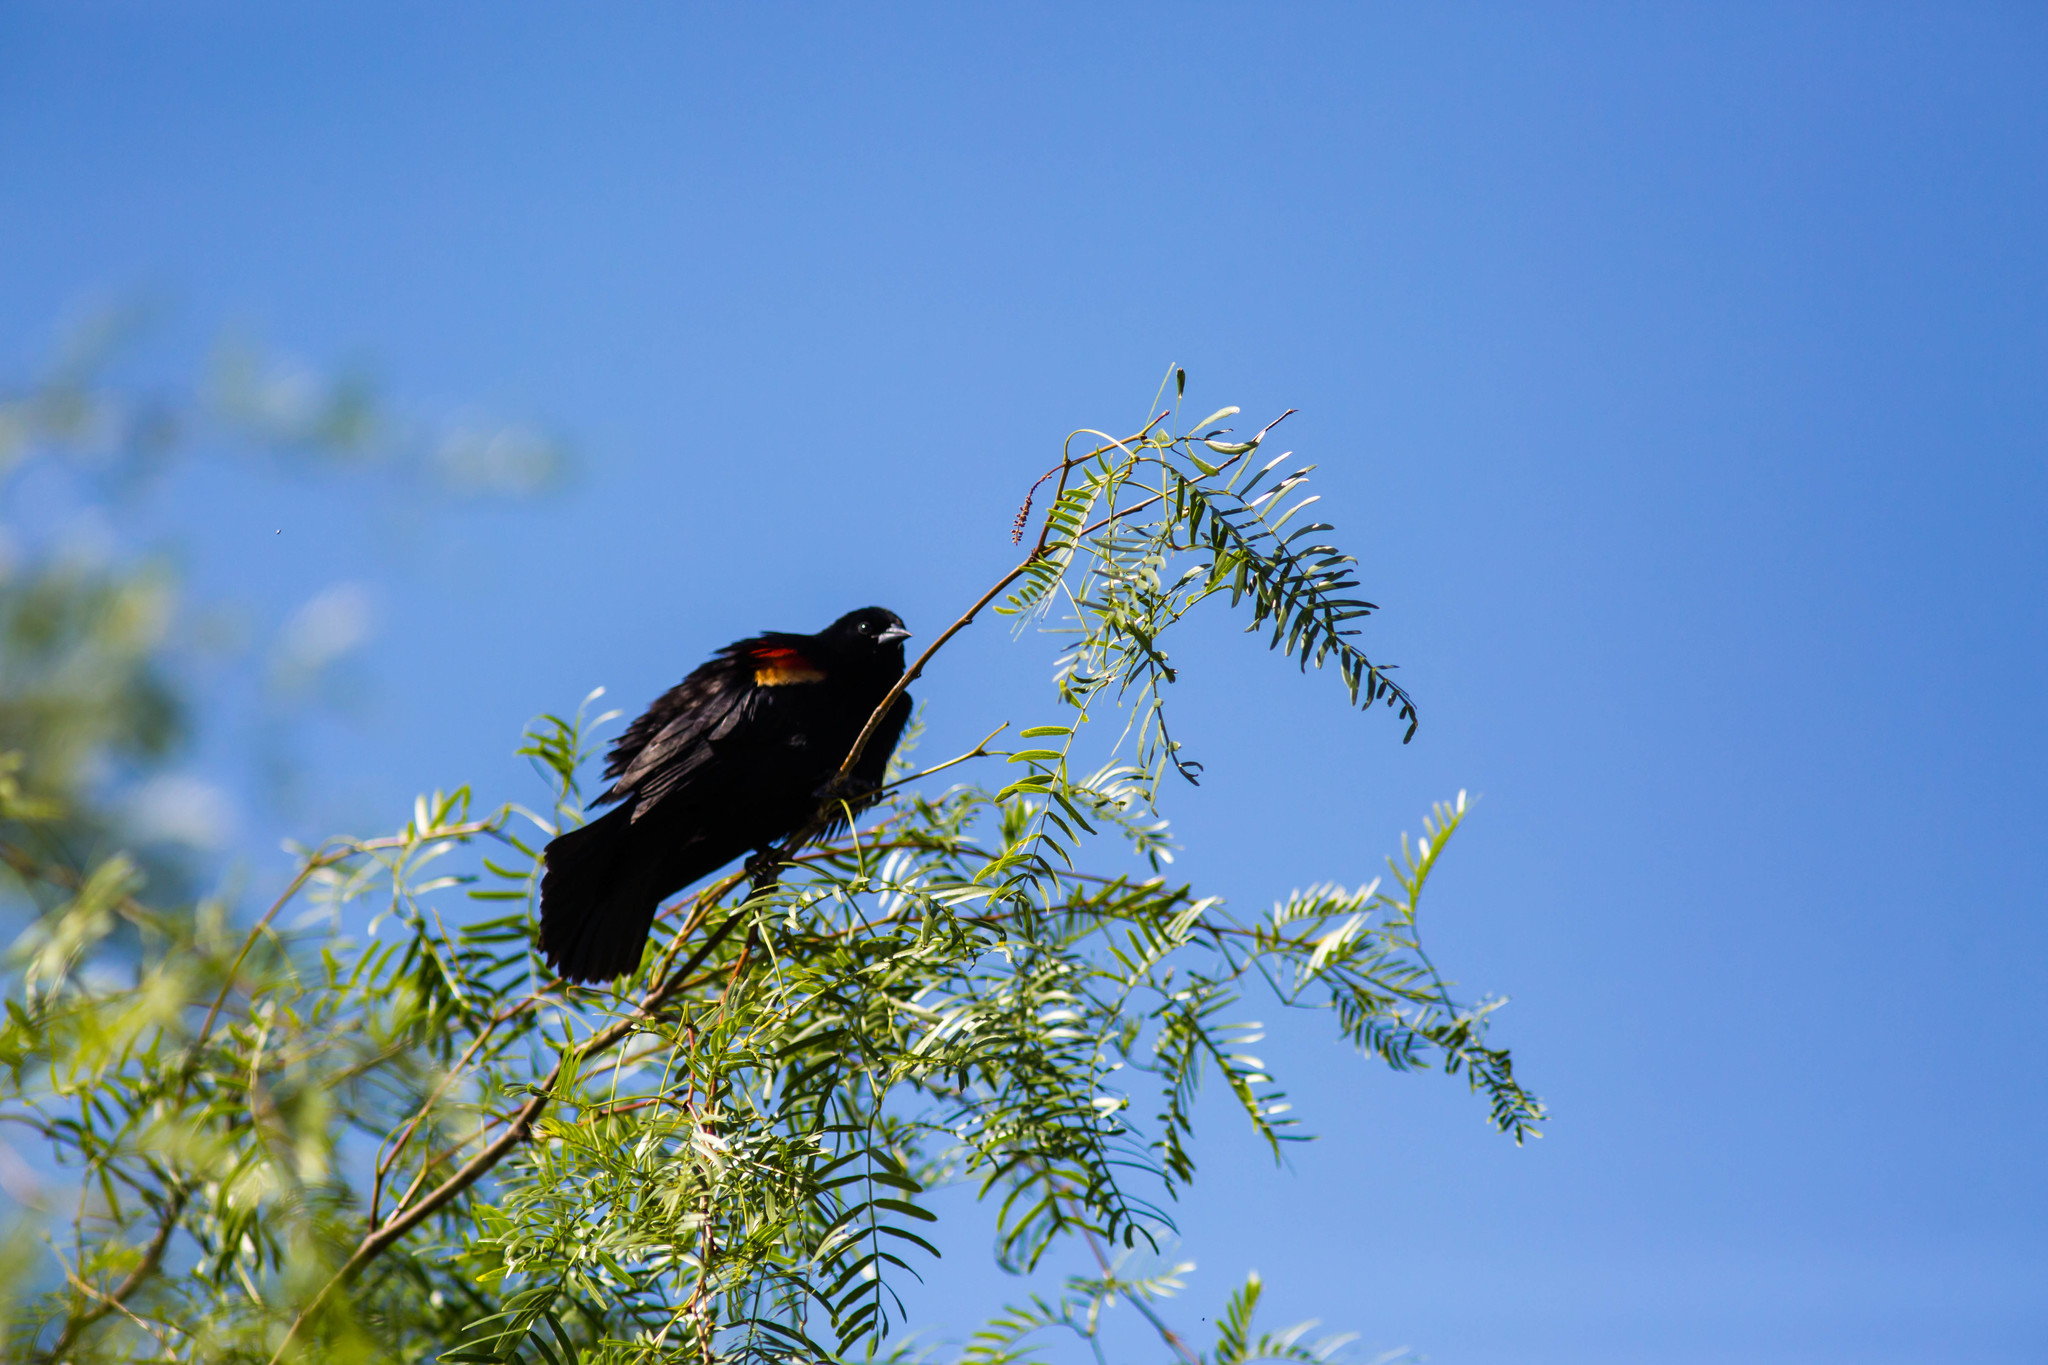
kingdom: Animalia
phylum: Chordata
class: Aves
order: Passeriformes
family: Icteridae
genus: Agelaius
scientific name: Agelaius phoeniceus
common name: Red-winged blackbird
